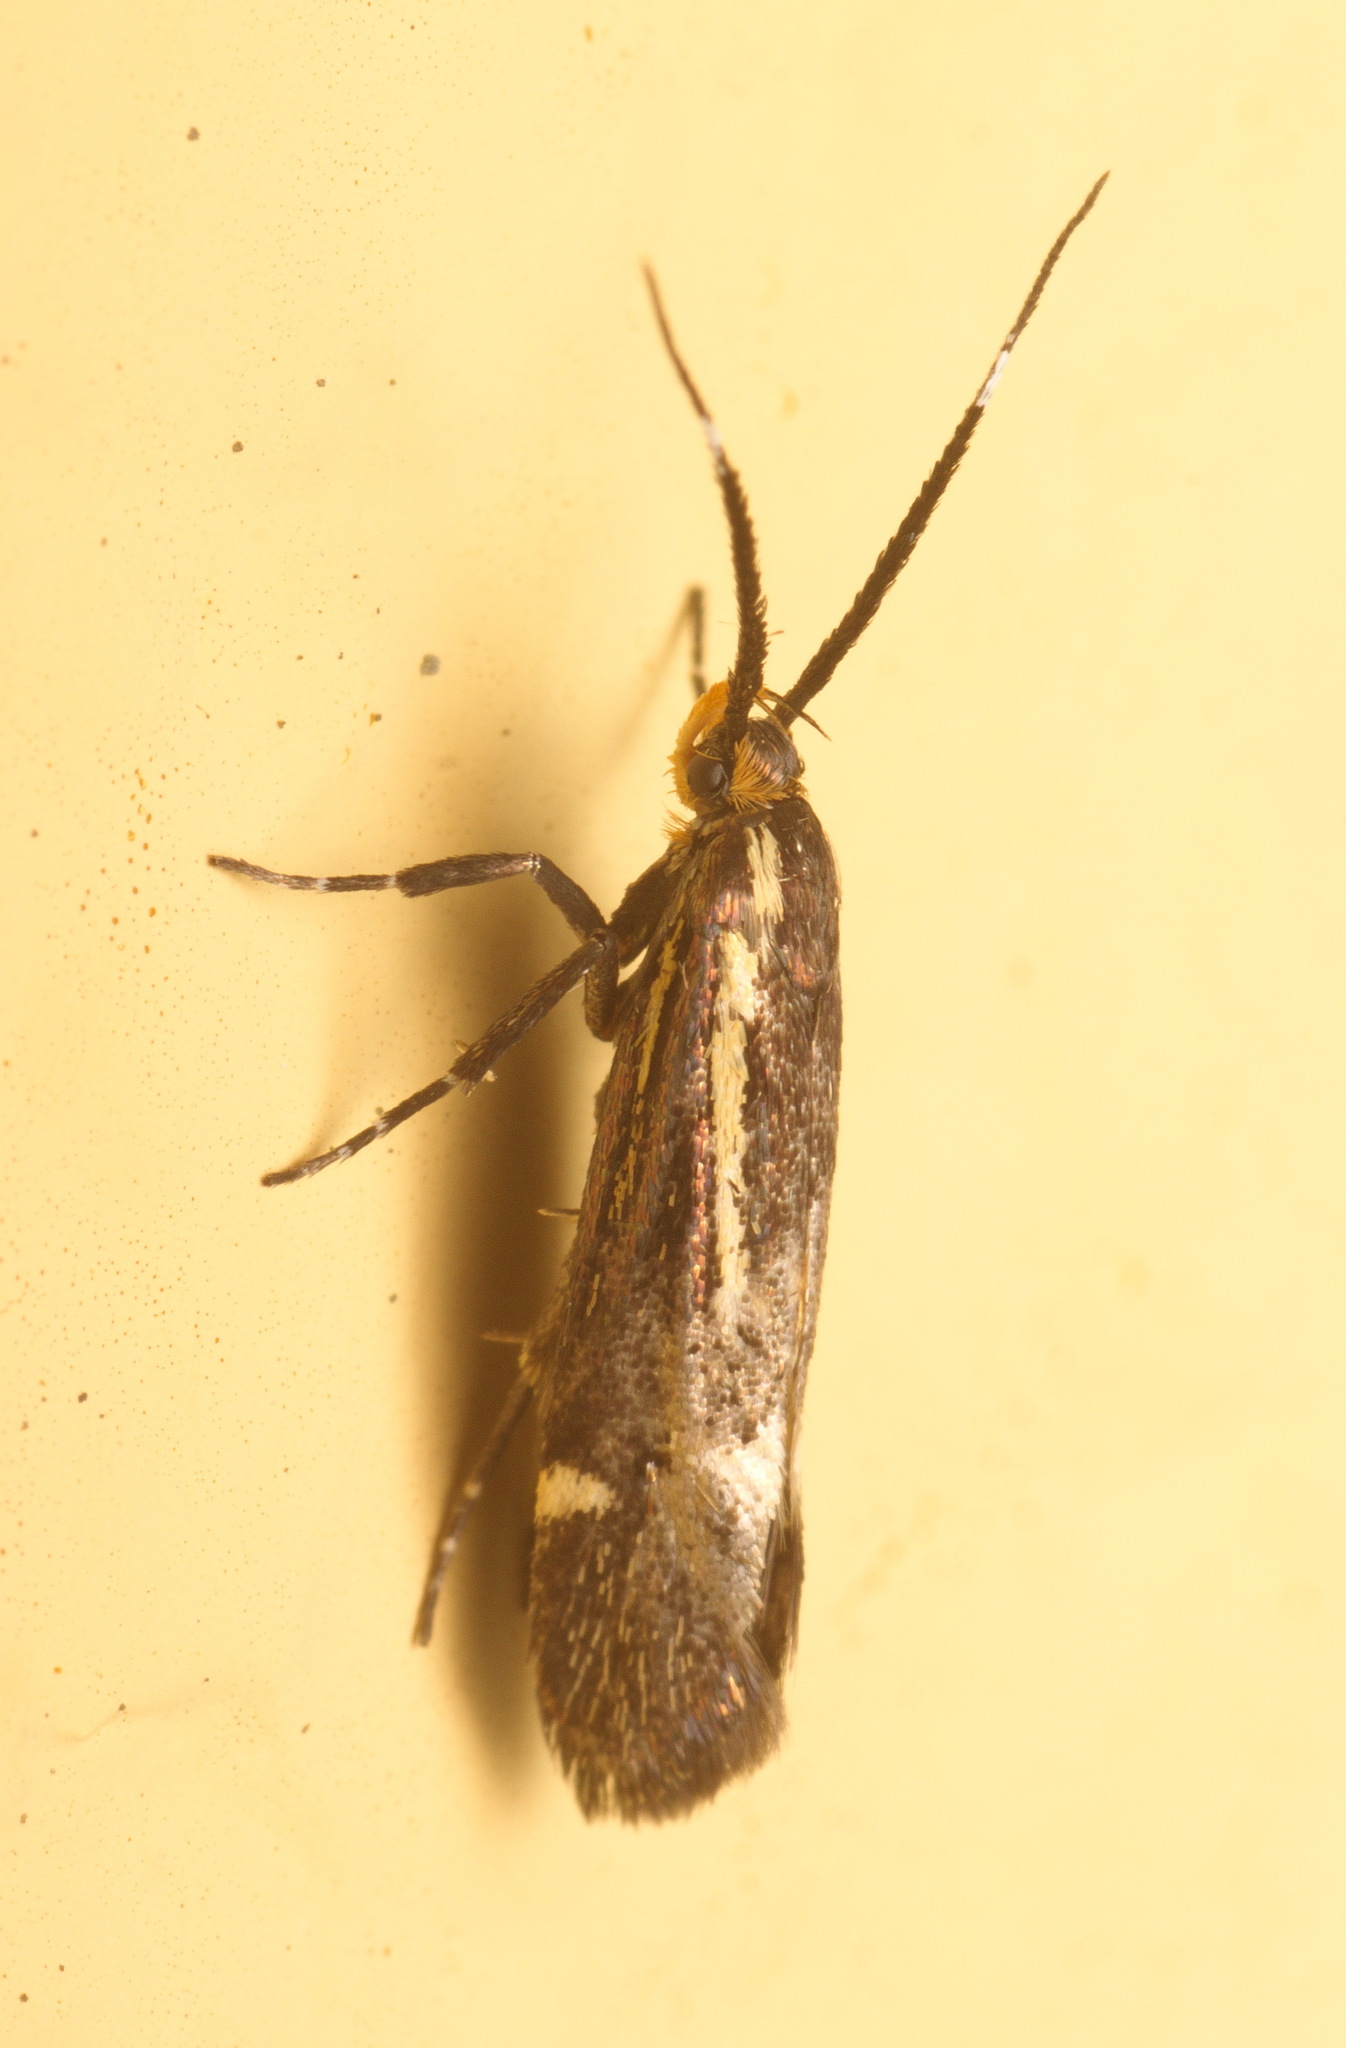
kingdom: Animalia
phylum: Arthropoda
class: Insecta
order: Lepidoptera
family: Oecophoridae
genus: Dafa
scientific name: Dafa Esperia sulphurella
